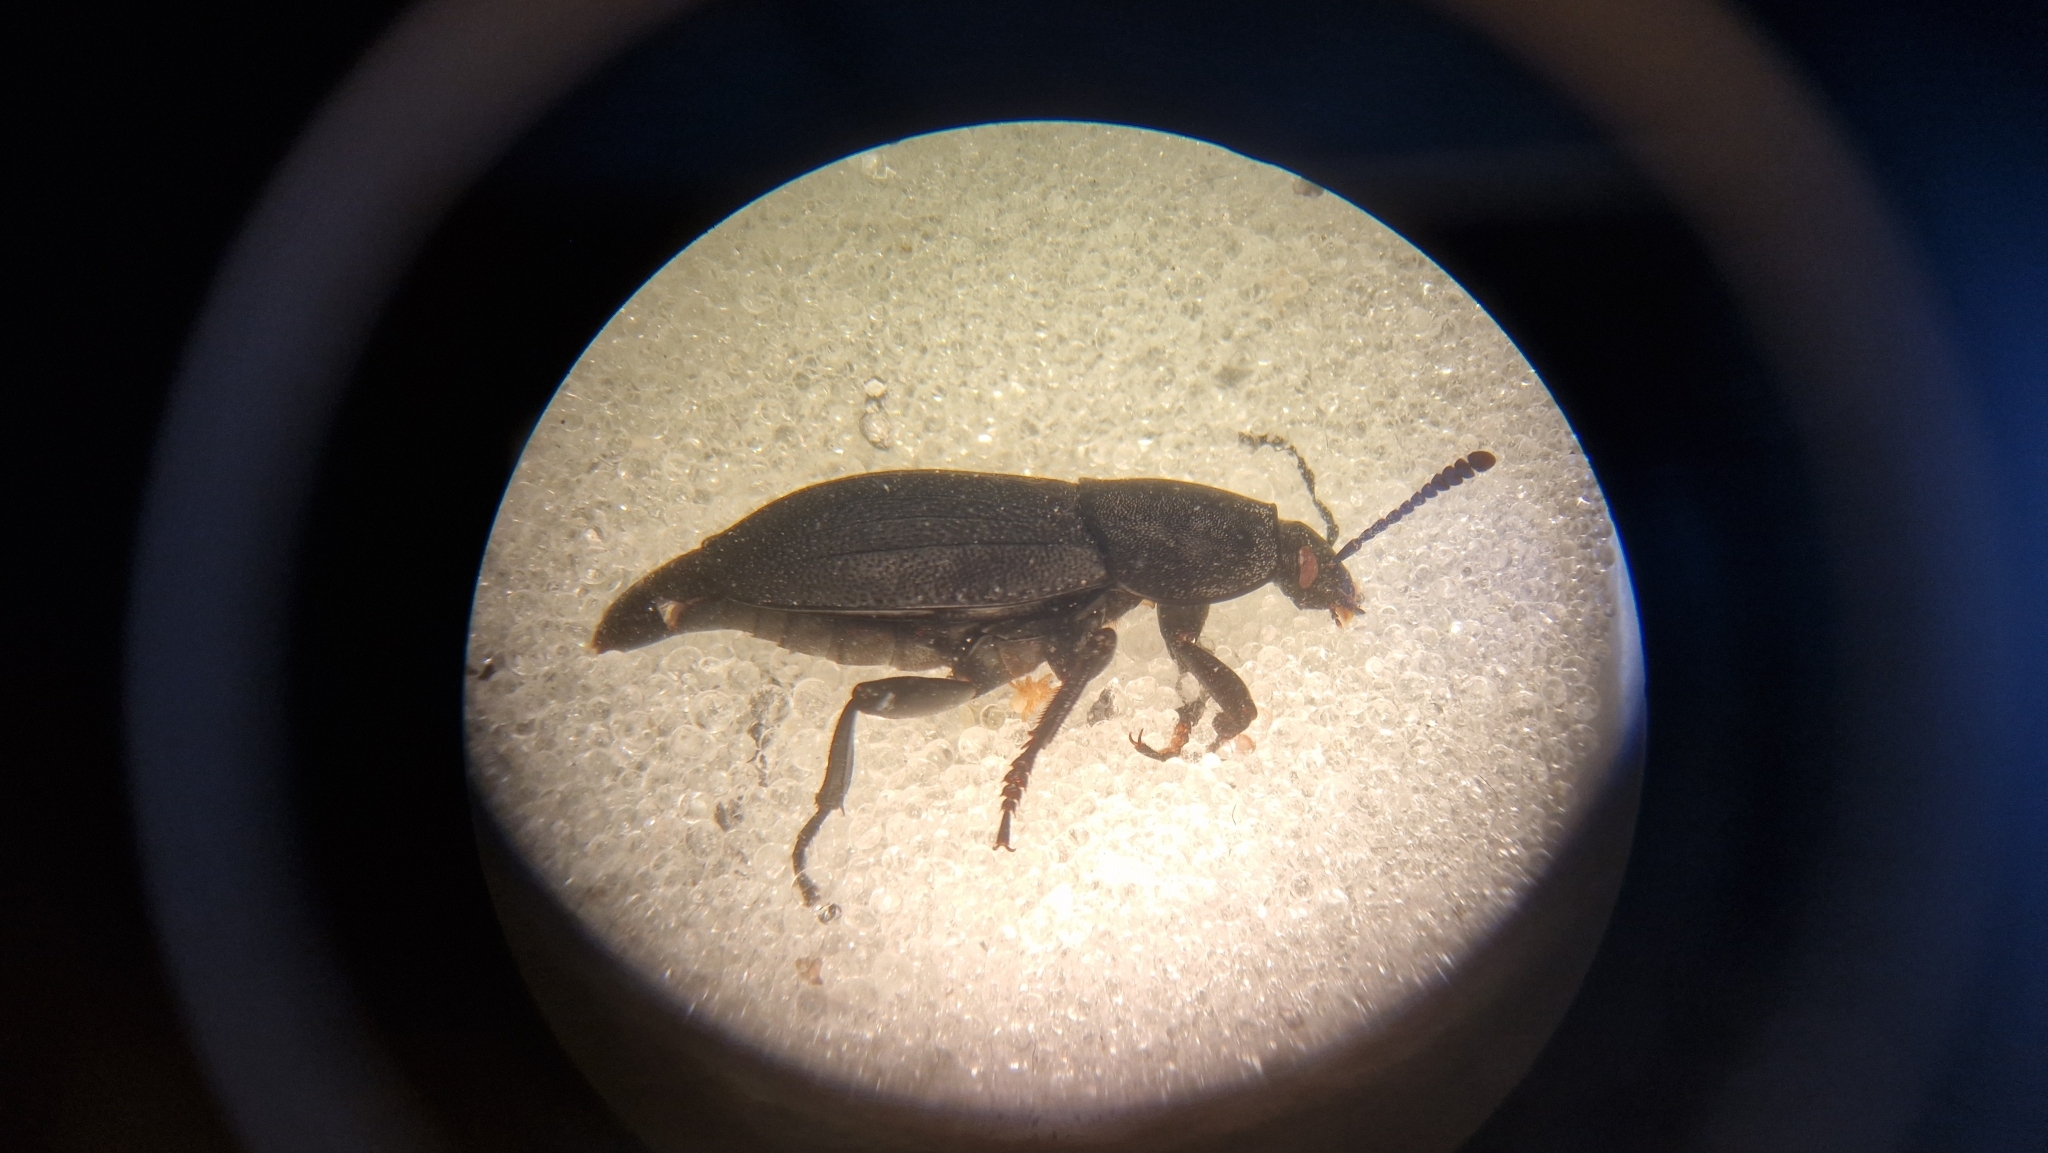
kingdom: Animalia
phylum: Arthropoda
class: Insecta
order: Coleoptera
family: Staphylinidae
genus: Silpha
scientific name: Silpha obscura
